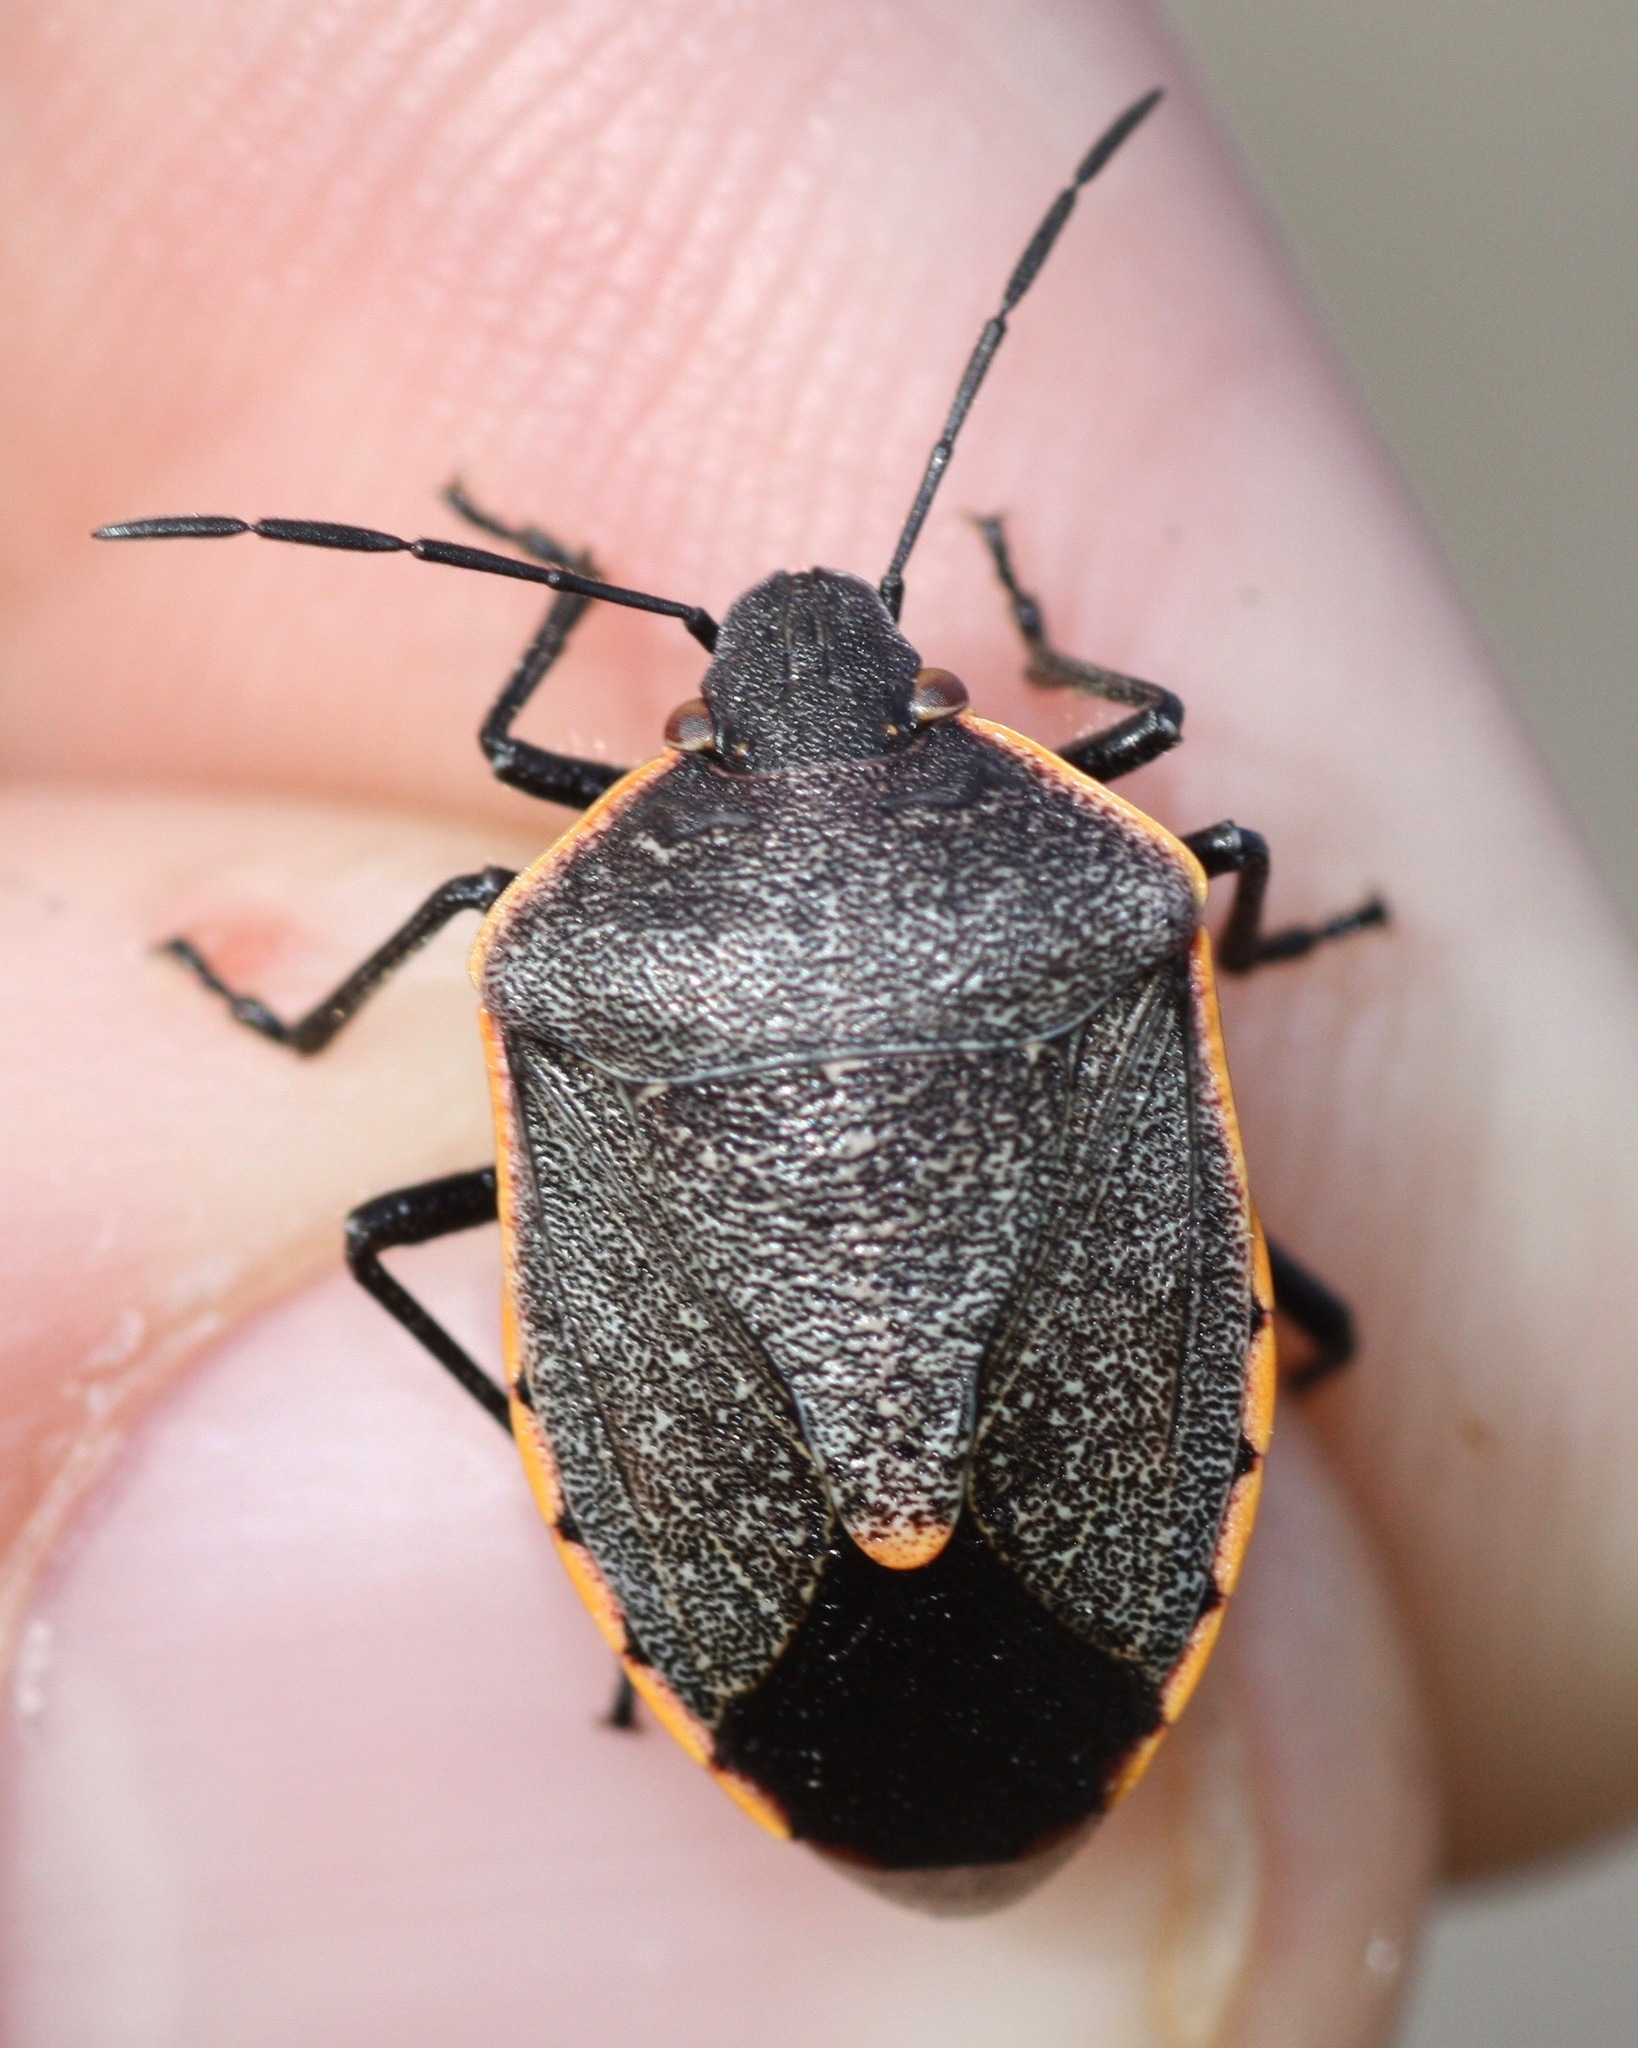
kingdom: Animalia
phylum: Arthropoda
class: Insecta
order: Hemiptera
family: Pentatomidae
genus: Chlorochroa
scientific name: Chlorochroa ligata
